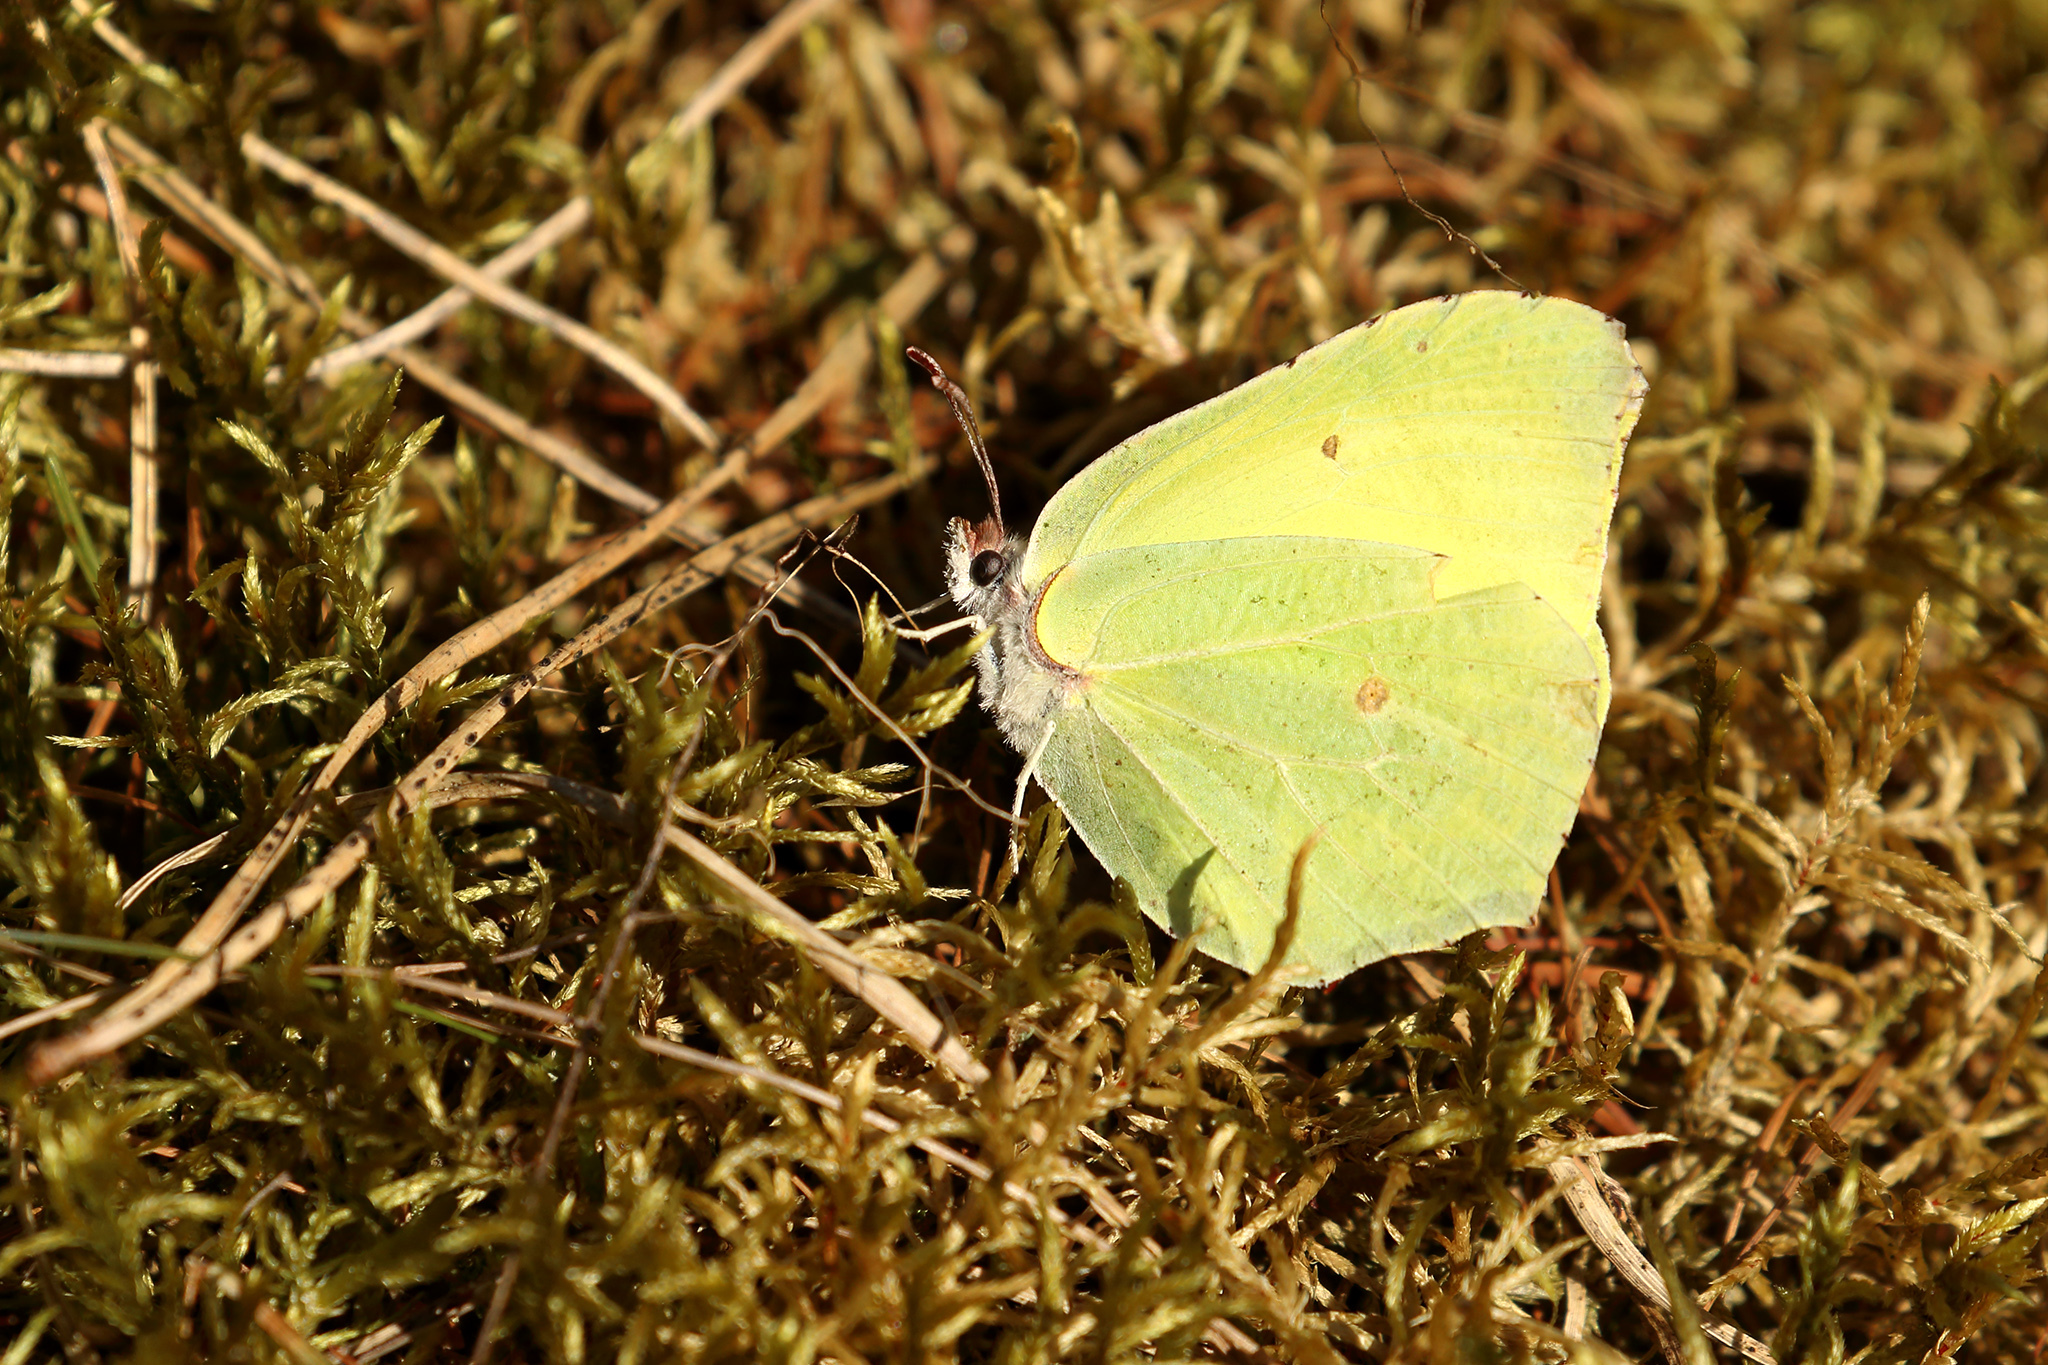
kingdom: Animalia
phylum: Arthropoda
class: Insecta
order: Lepidoptera
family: Pieridae
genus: Gonepteryx
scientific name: Gonepteryx rhamni
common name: Brimstone
